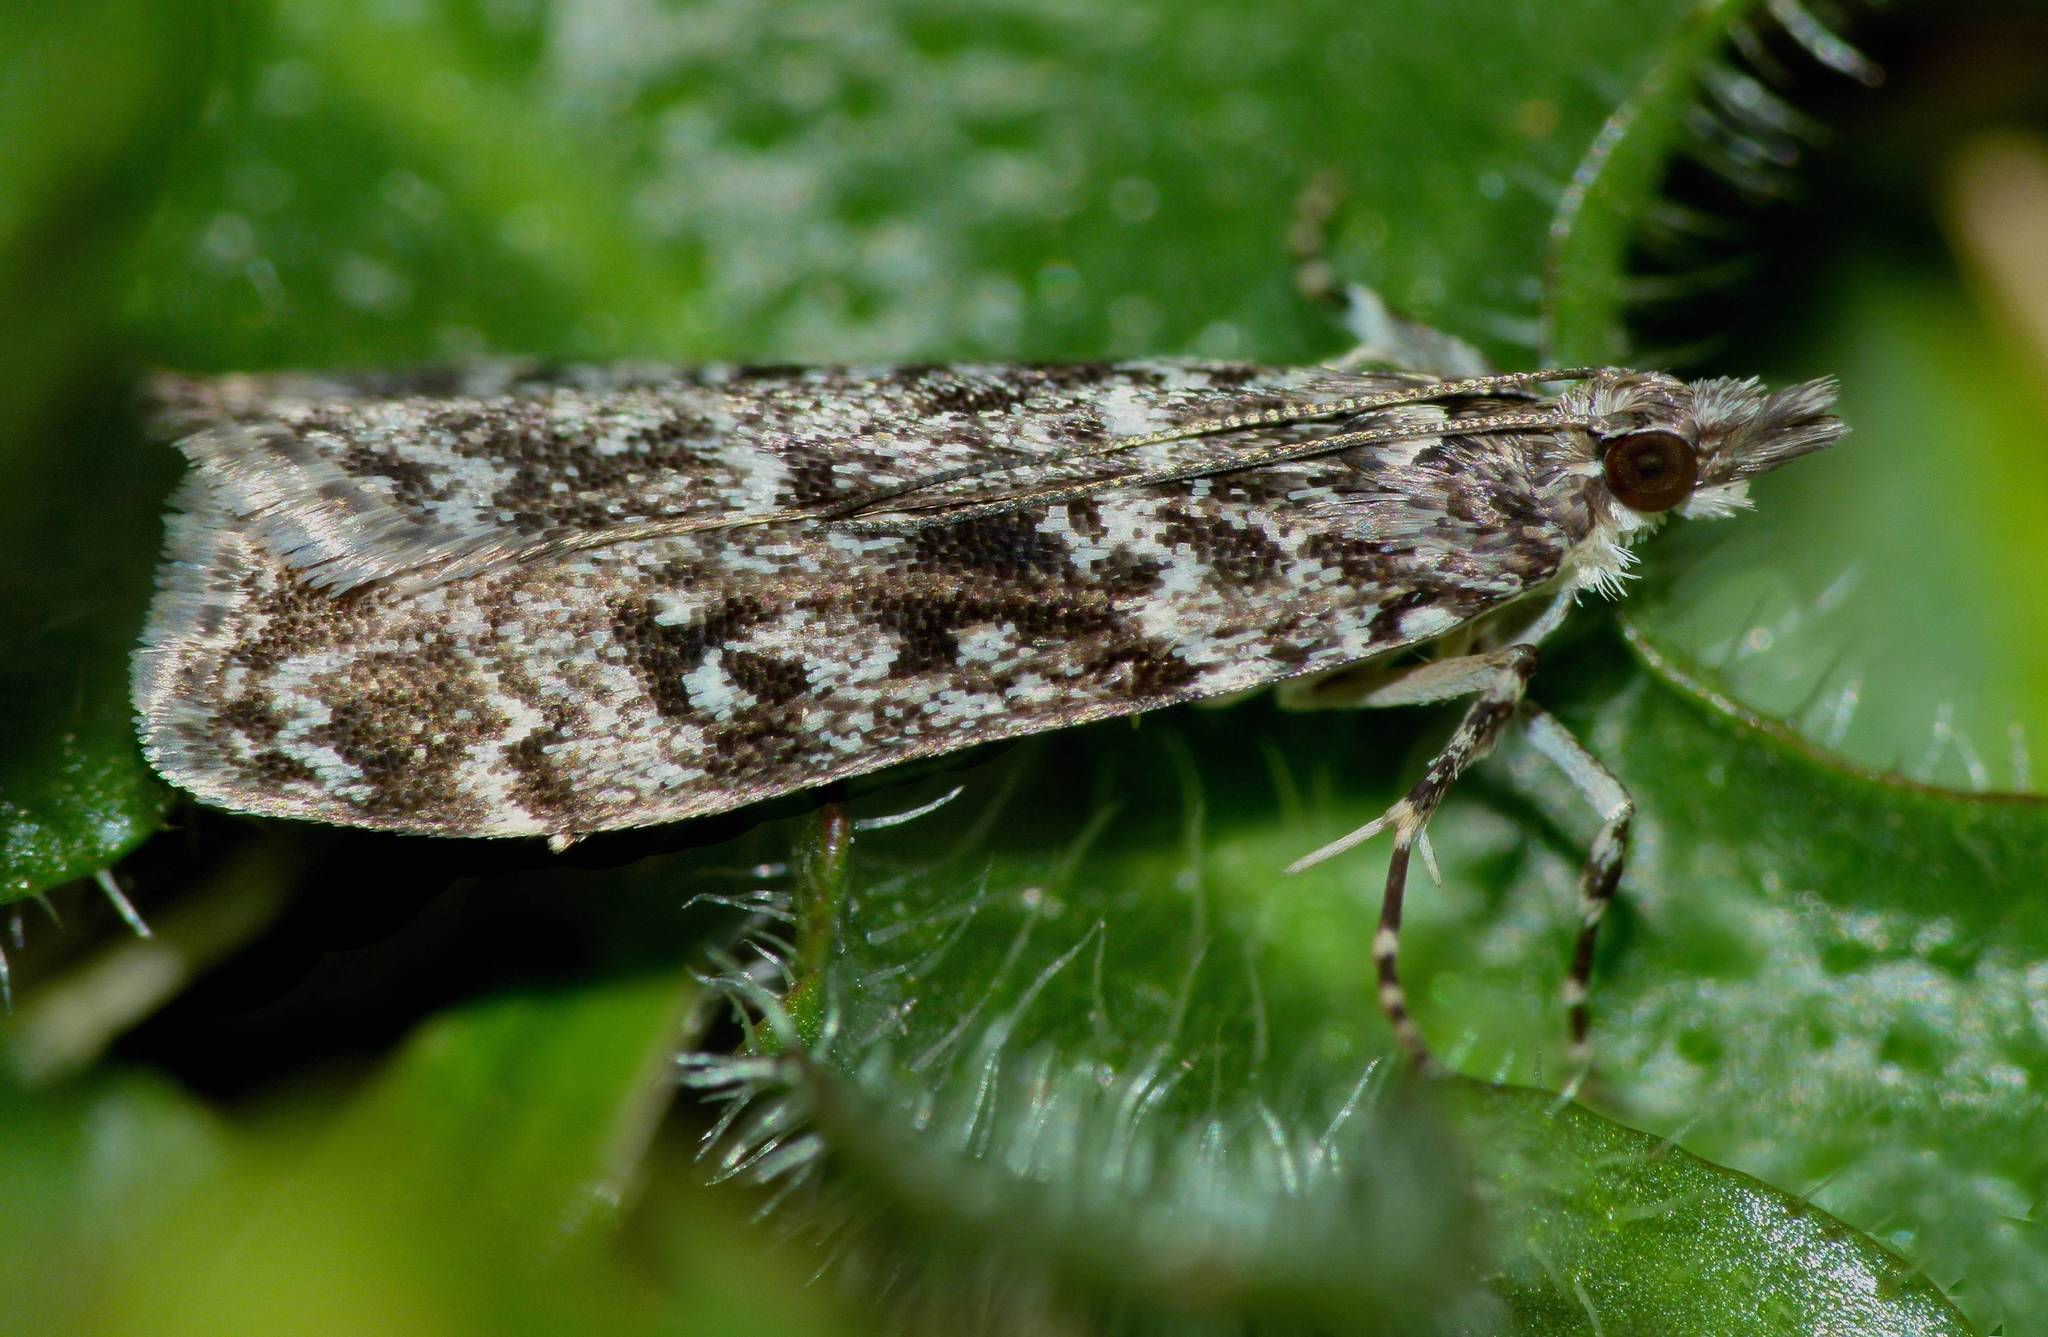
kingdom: Animalia
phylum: Arthropoda
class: Insecta
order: Lepidoptera
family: Crambidae
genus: Eudonia
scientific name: Eudonia philerga
